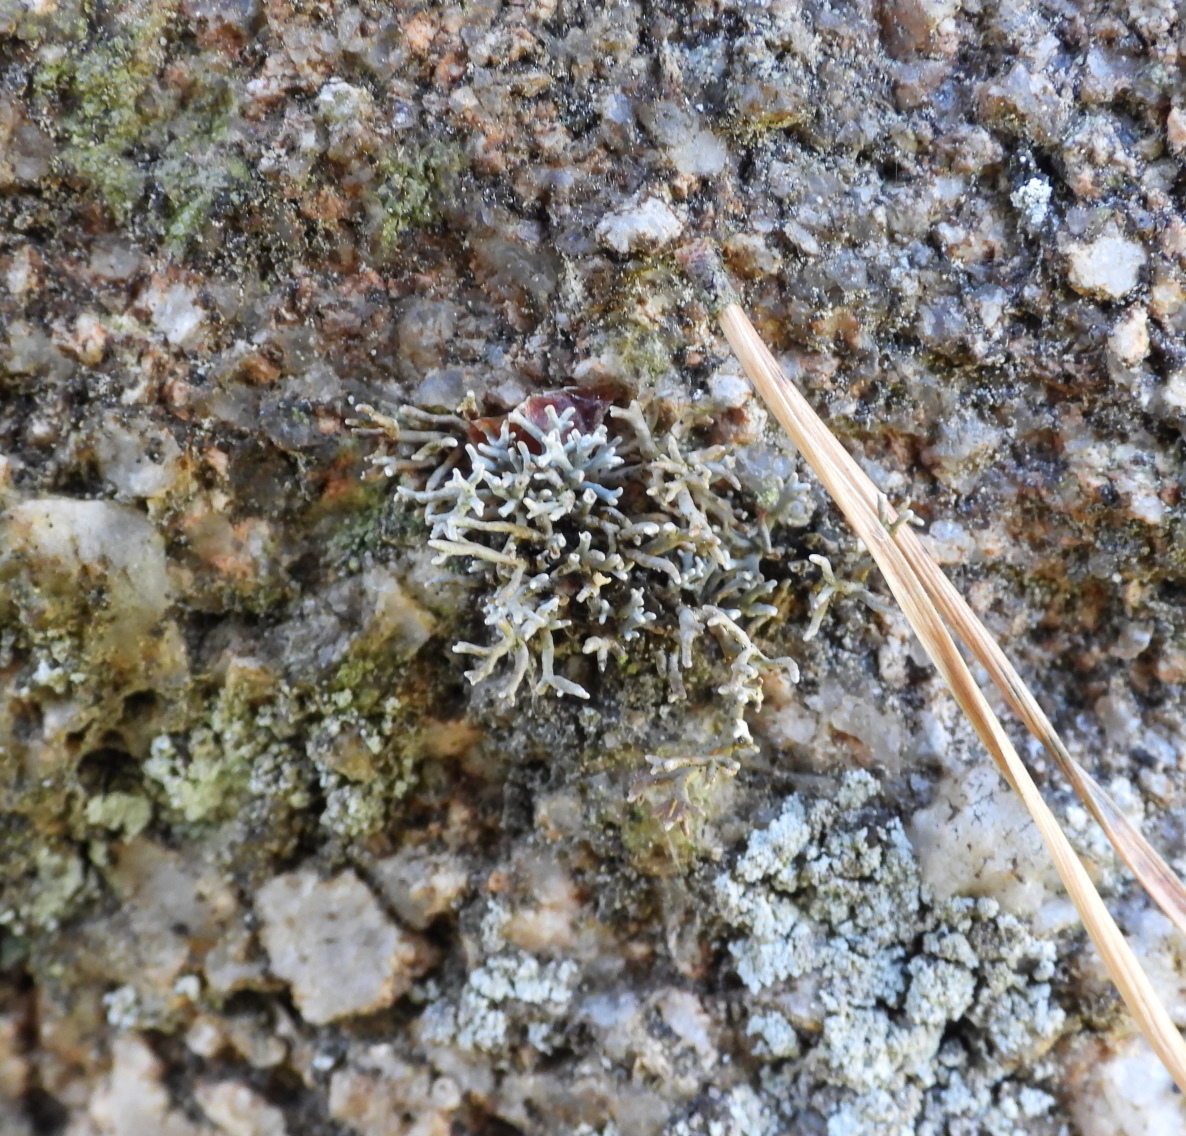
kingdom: Fungi
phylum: Ascomycota
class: Lecanoromycetes
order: Lecanorales
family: Sphaerophoraceae
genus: Sphaerophorus
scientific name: Sphaerophorus fragilis
